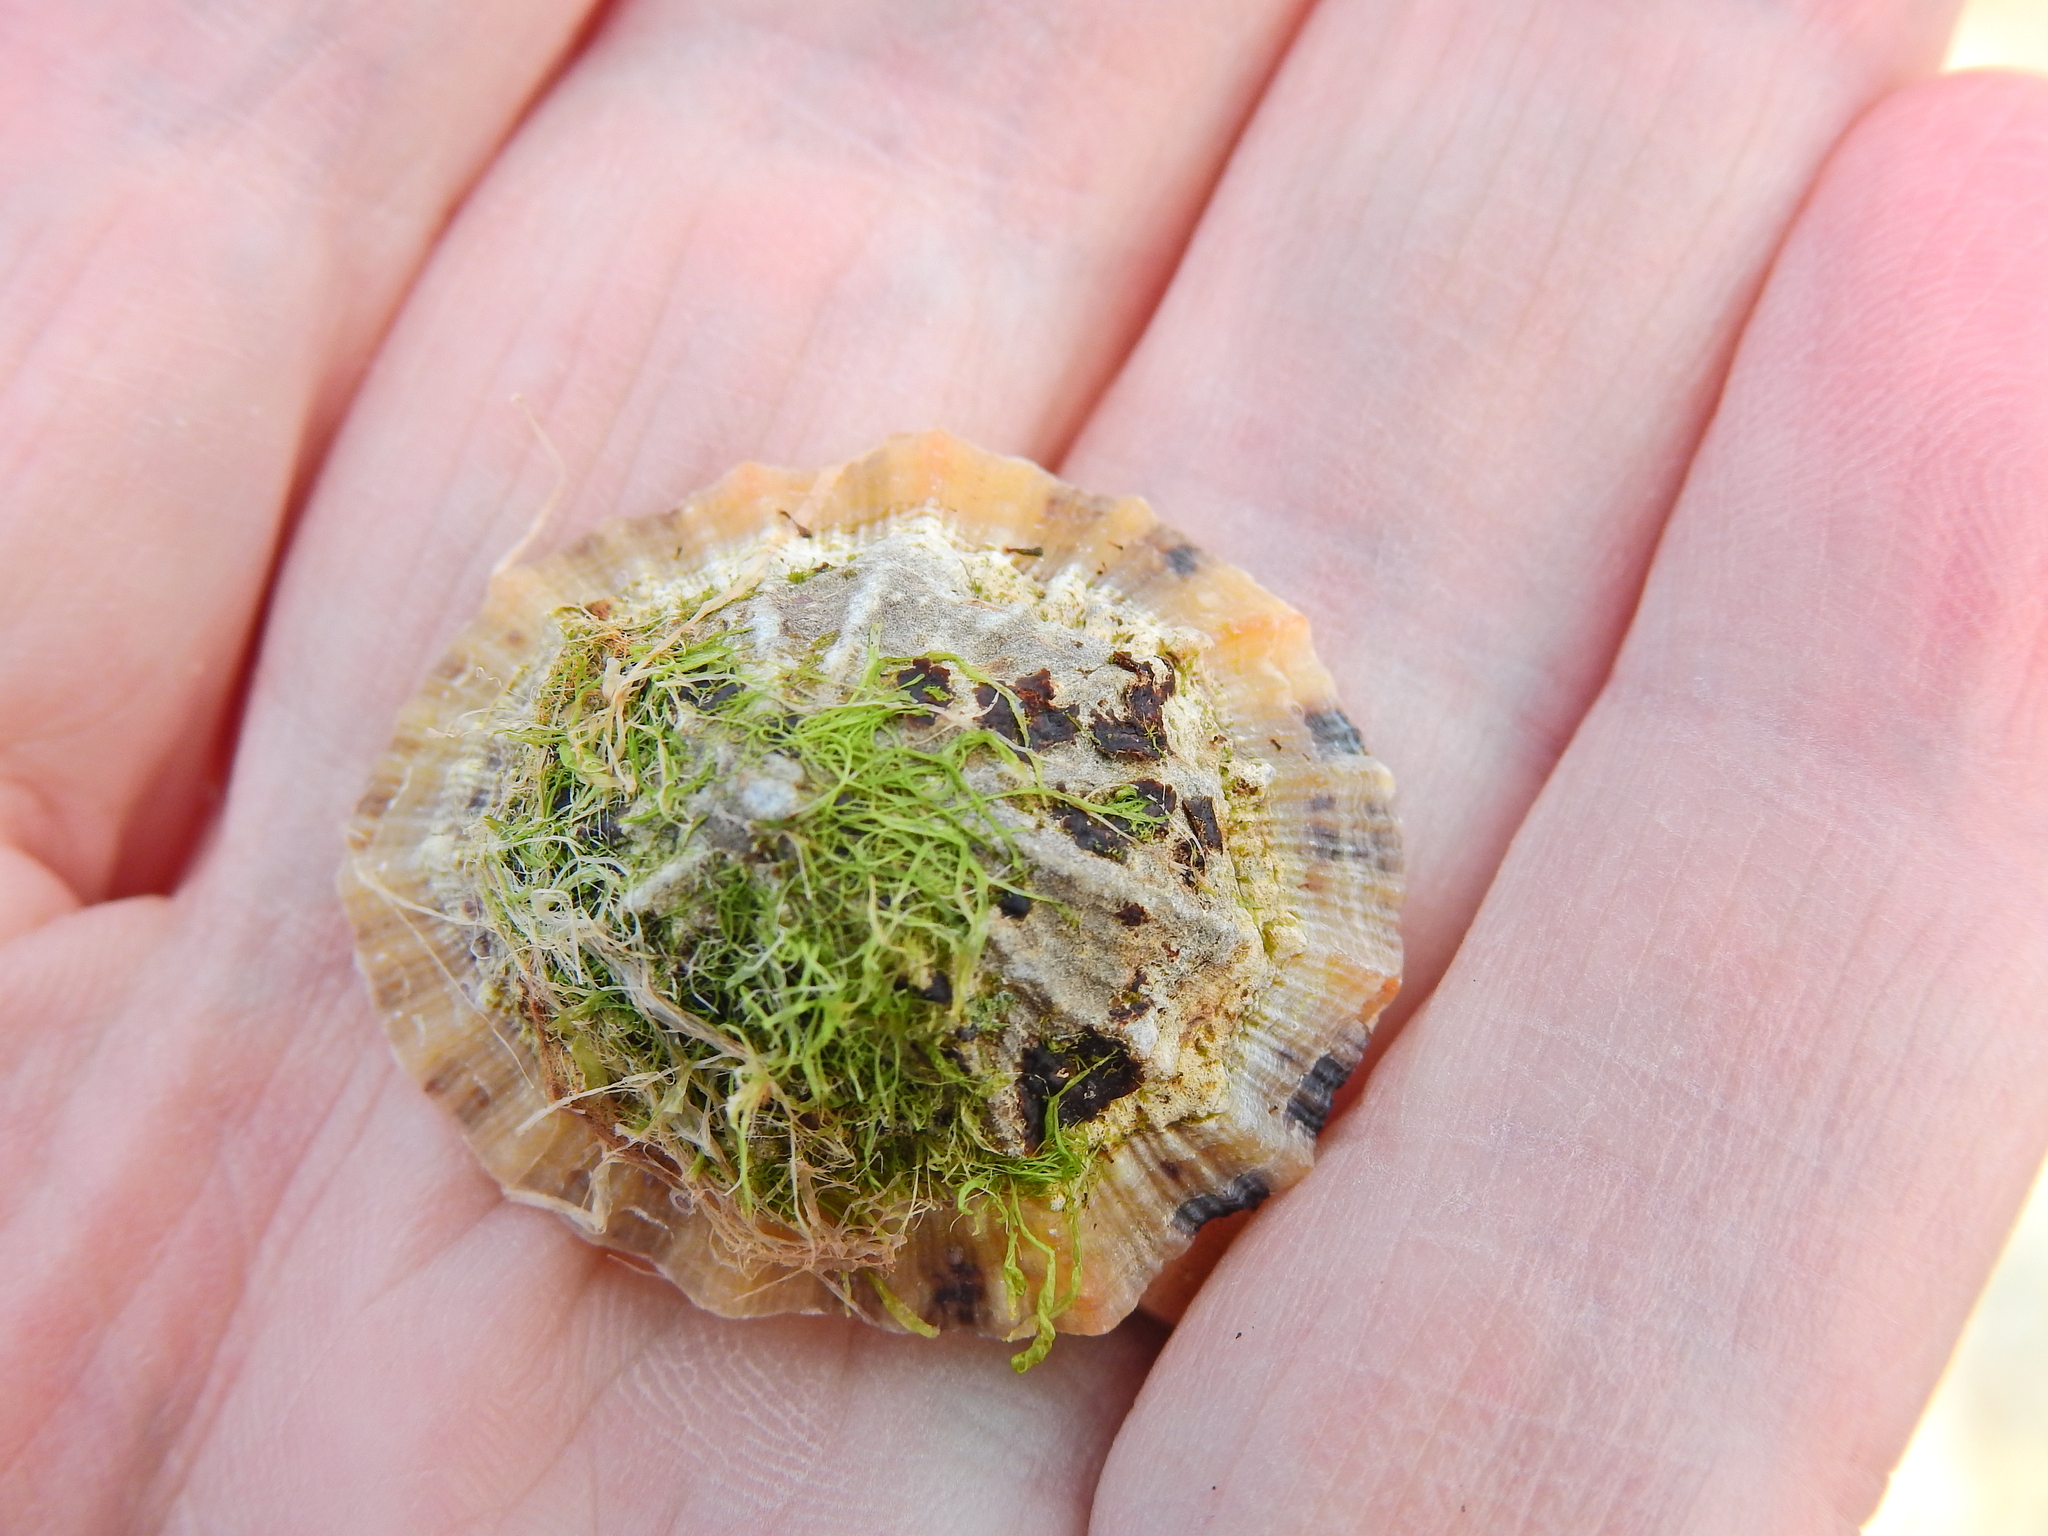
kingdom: Animalia
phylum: Mollusca
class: Gastropoda
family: Patellidae
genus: Patella
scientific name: Patella vulgata
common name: Common limpet
